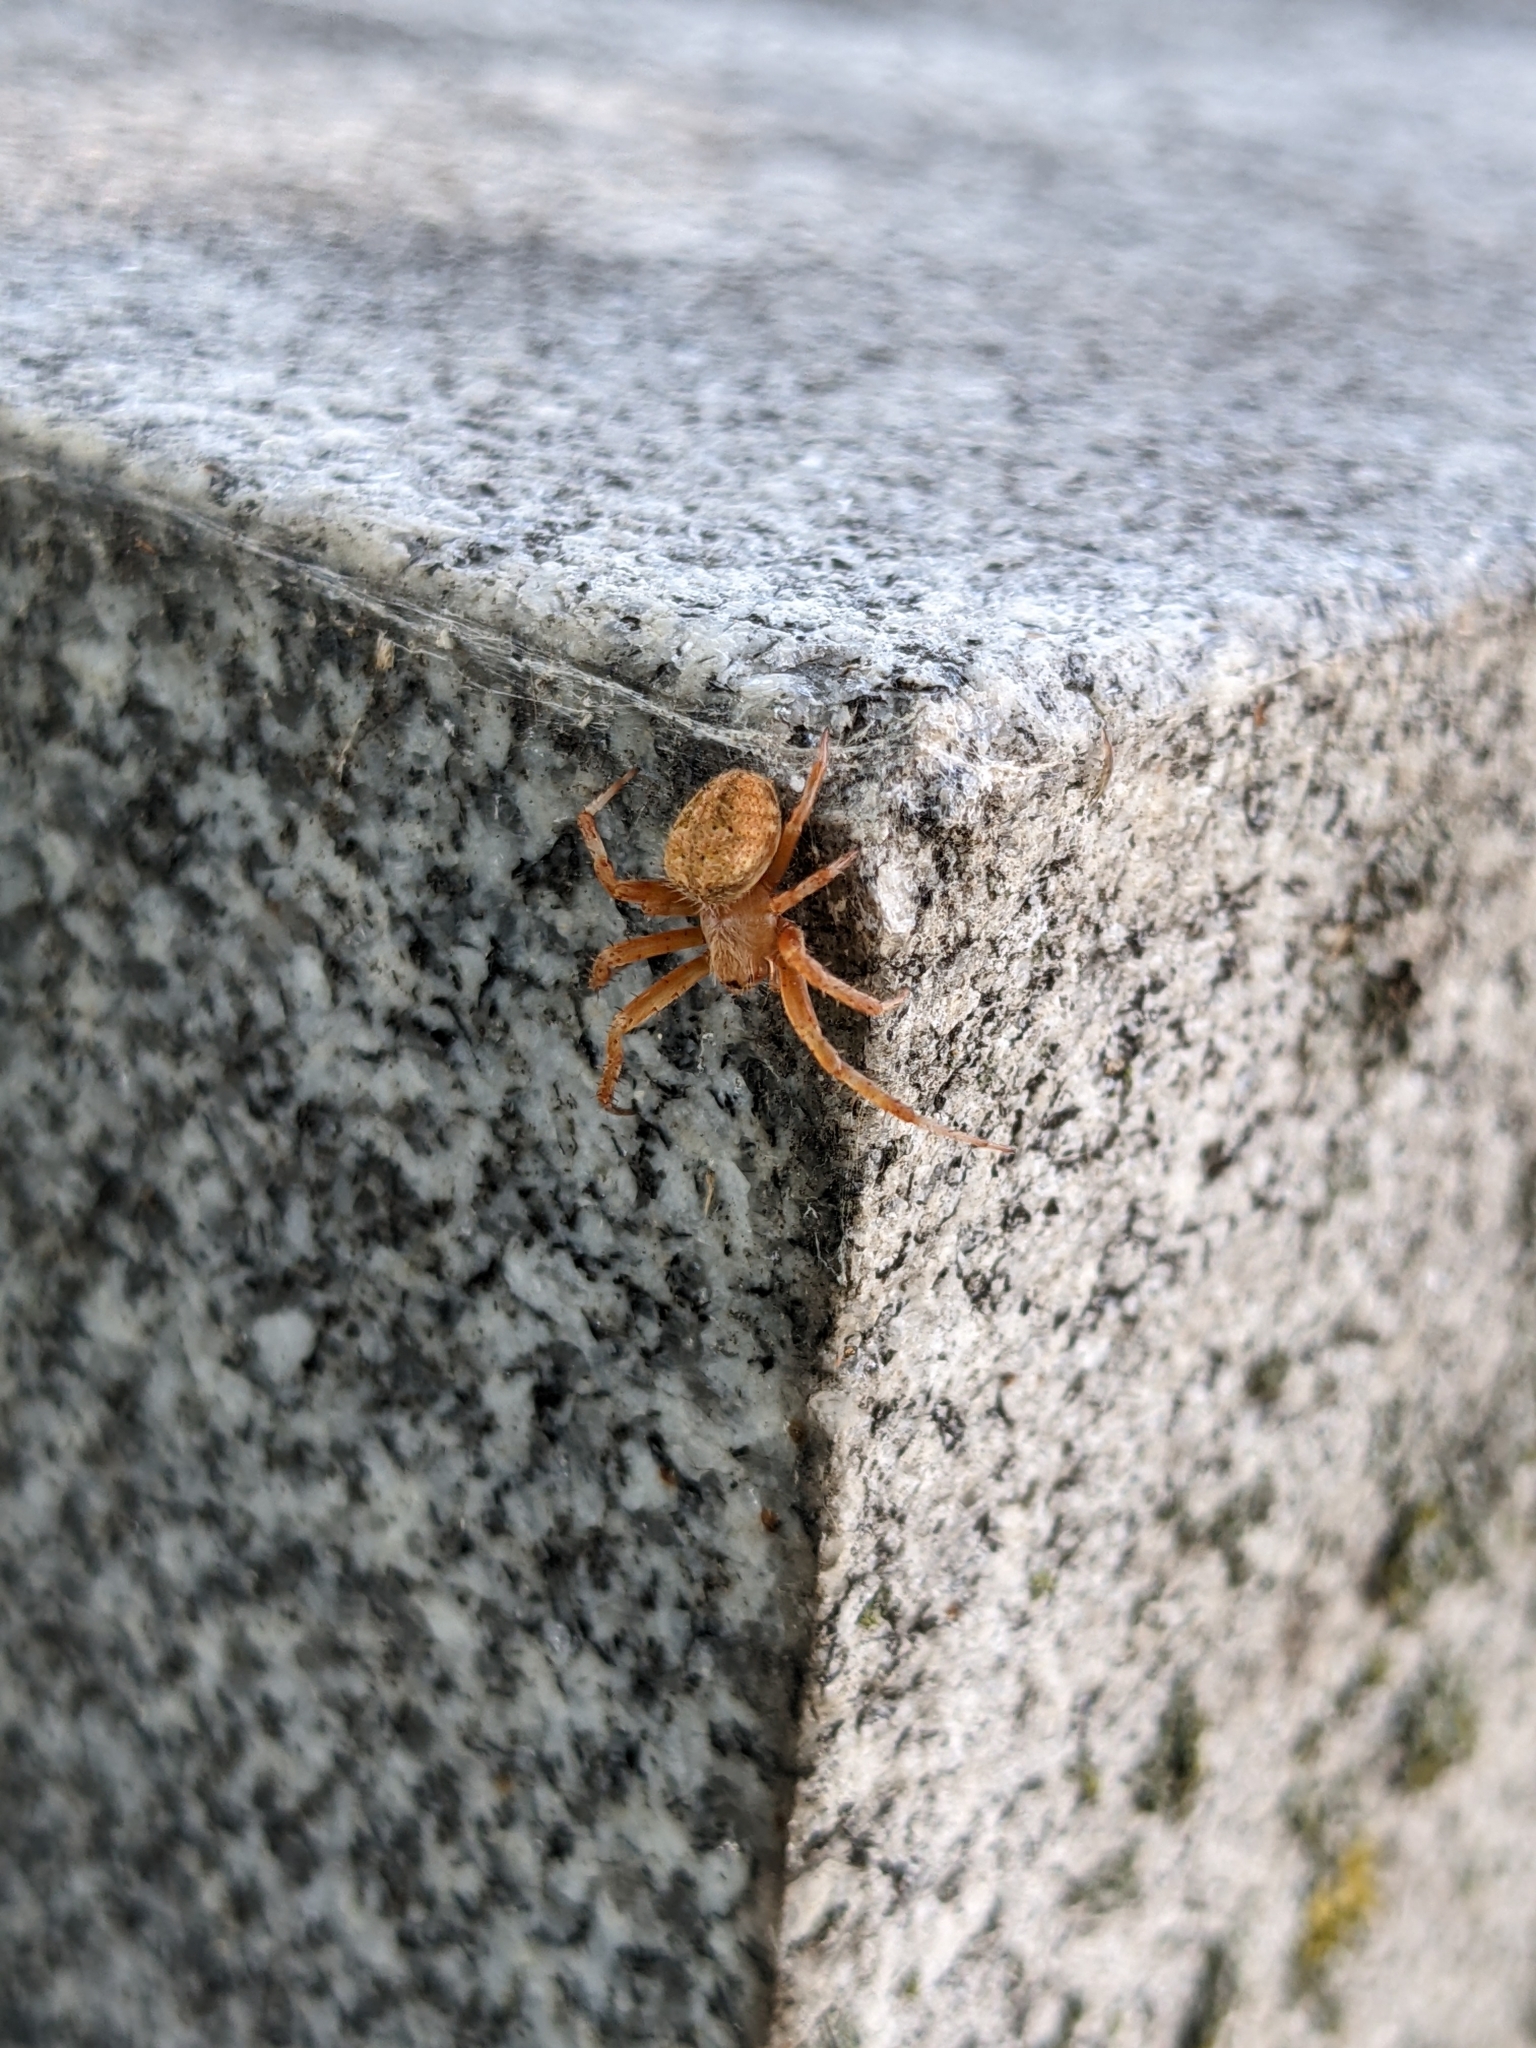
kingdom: Animalia
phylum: Arthropoda
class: Arachnida
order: Araneae
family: Araneidae
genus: Neoscona
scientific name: Neoscona crucifera
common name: Spotted orbweaver
